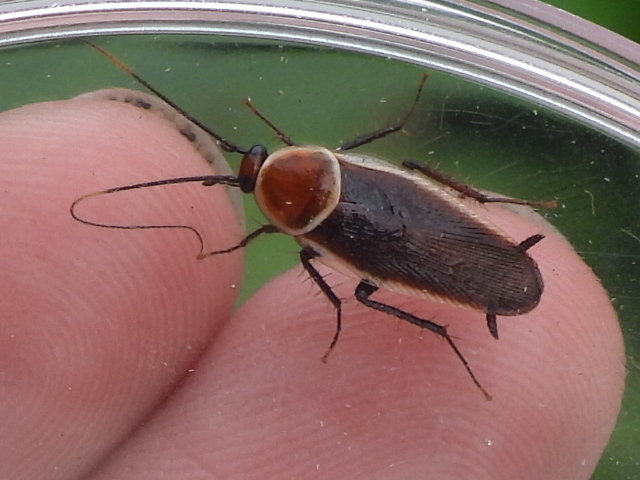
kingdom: Animalia
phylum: Arthropoda
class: Insecta
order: Blattodea
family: Ectobiidae
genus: Pseudomops
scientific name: Pseudomops septentrionalis
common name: Pale-bordered field cockroach
